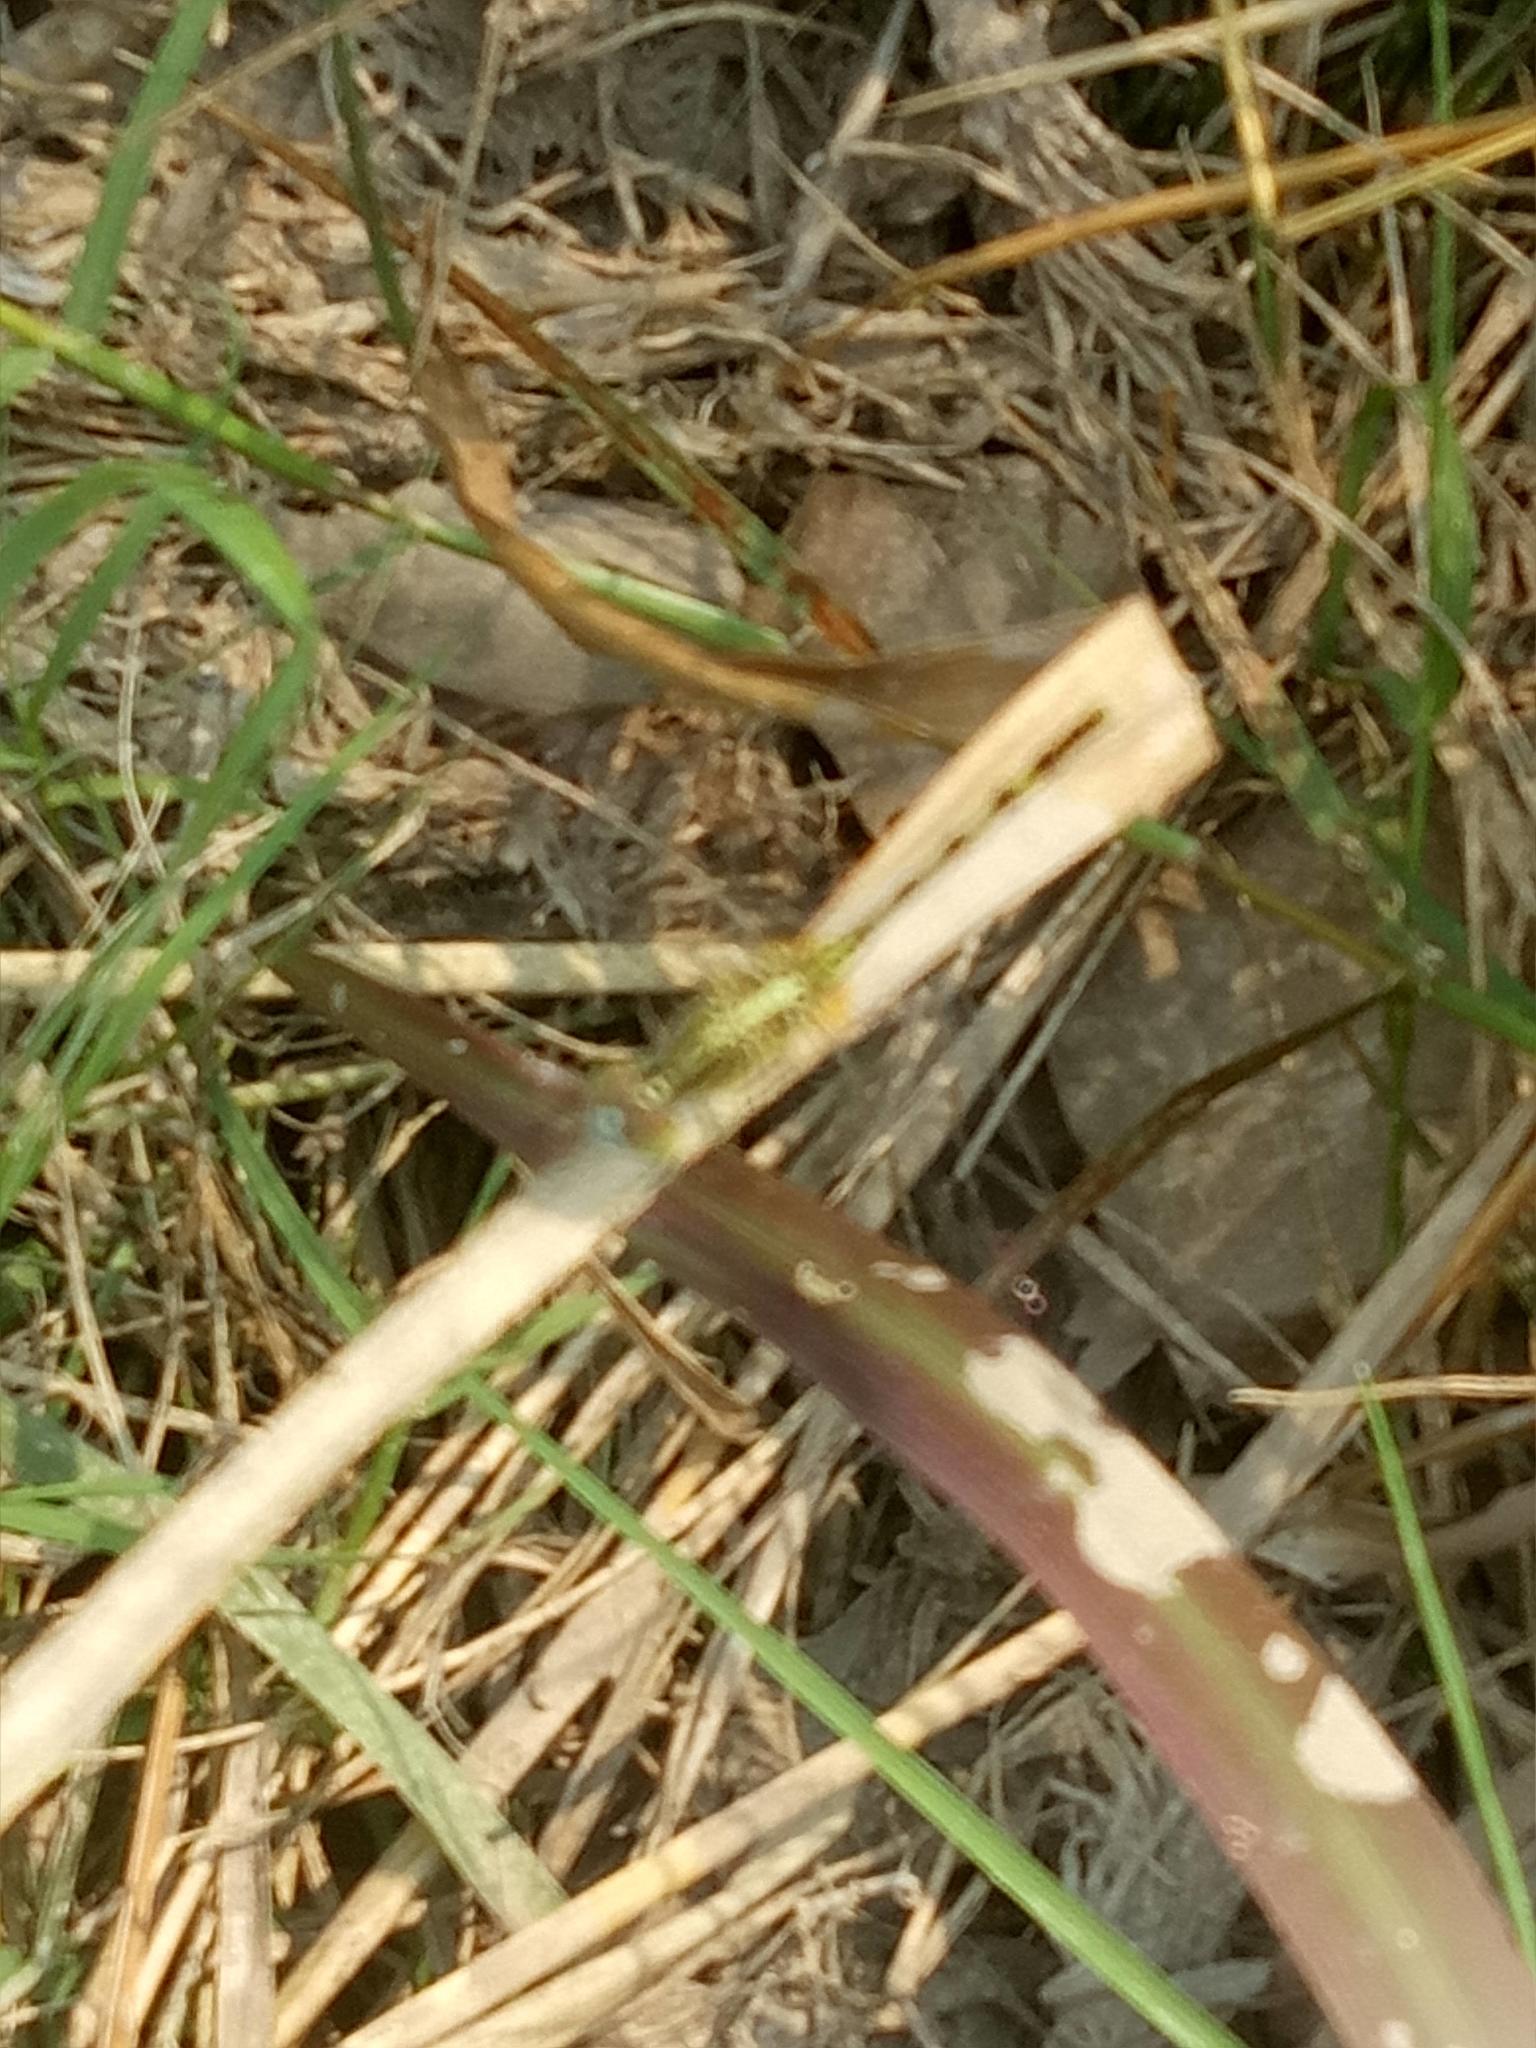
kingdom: Animalia
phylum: Arthropoda
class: Insecta
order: Odonata
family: Libellulidae
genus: Diplacodes
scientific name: Diplacodes trivialis
